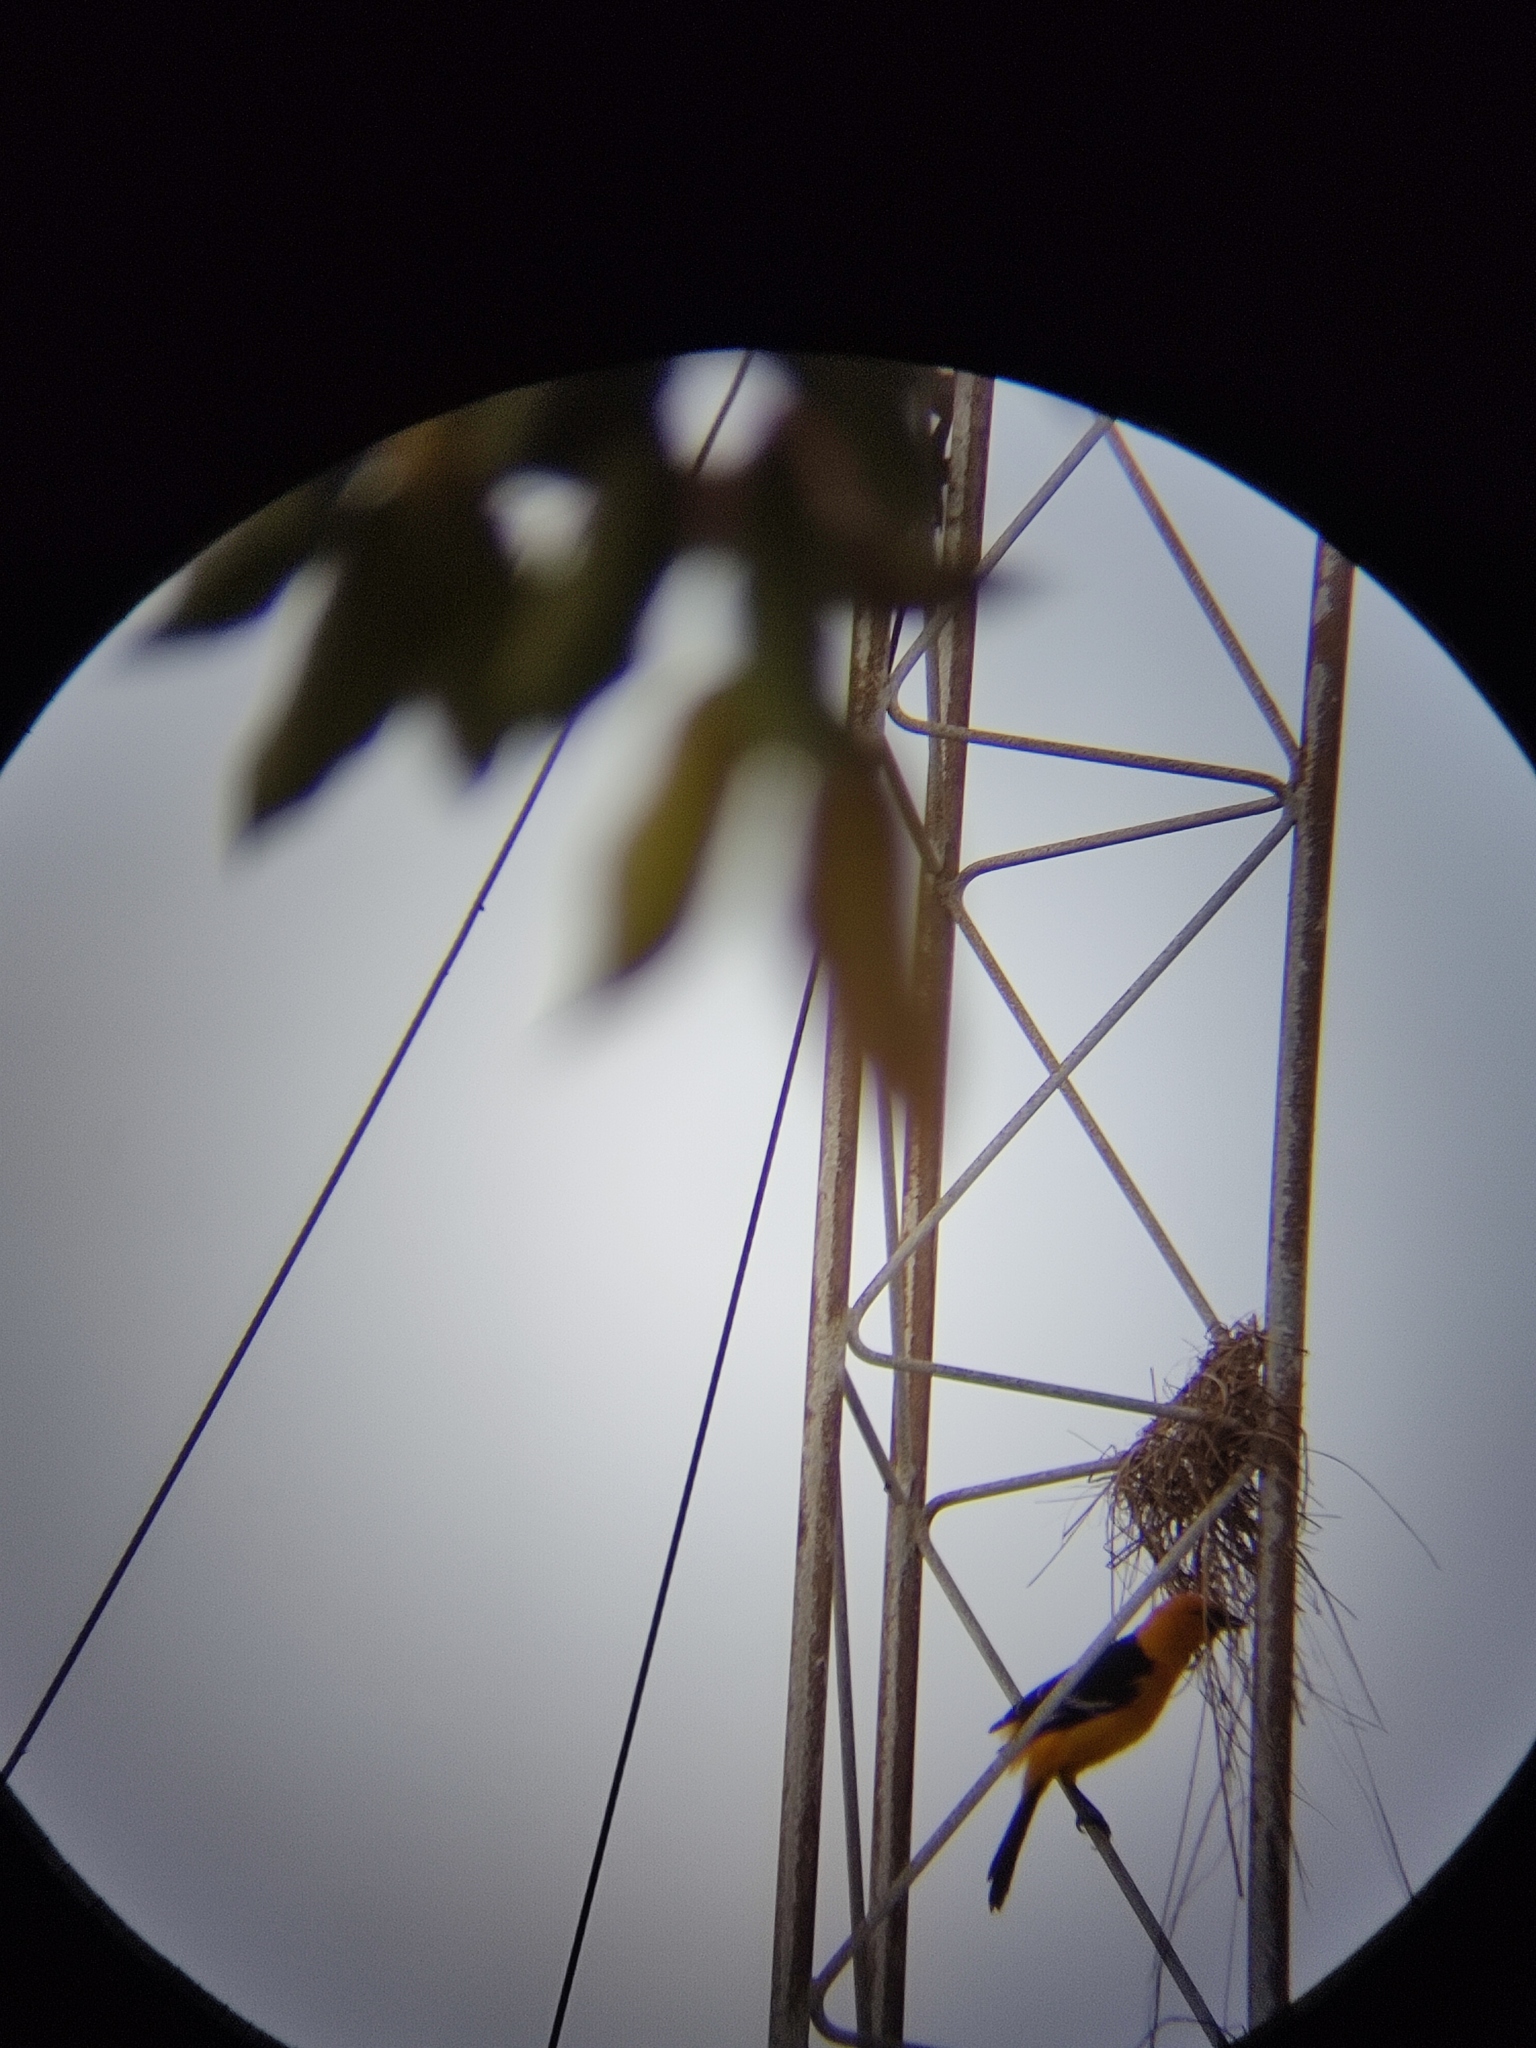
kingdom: Animalia
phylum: Chordata
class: Aves
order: Passeriformes
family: Icteridae
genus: Icterus
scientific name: Icterus gularis
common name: Altamira oriole
